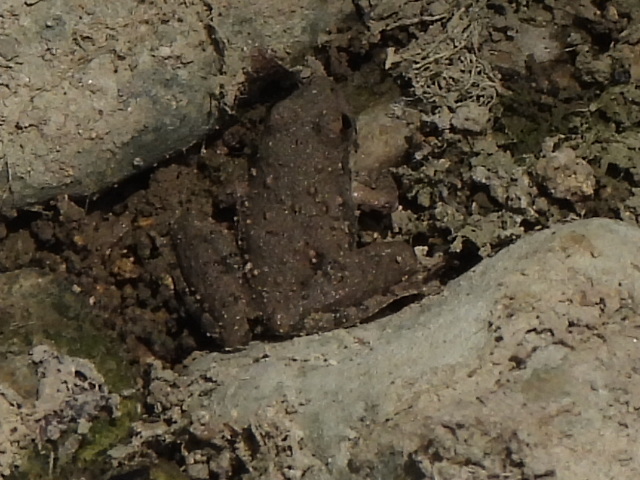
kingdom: Animalia
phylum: Chordata
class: Amphibia
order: Anura
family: Hylidae
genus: Acris
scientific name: Acris blanchardi
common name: Blanchard's cricket frog
